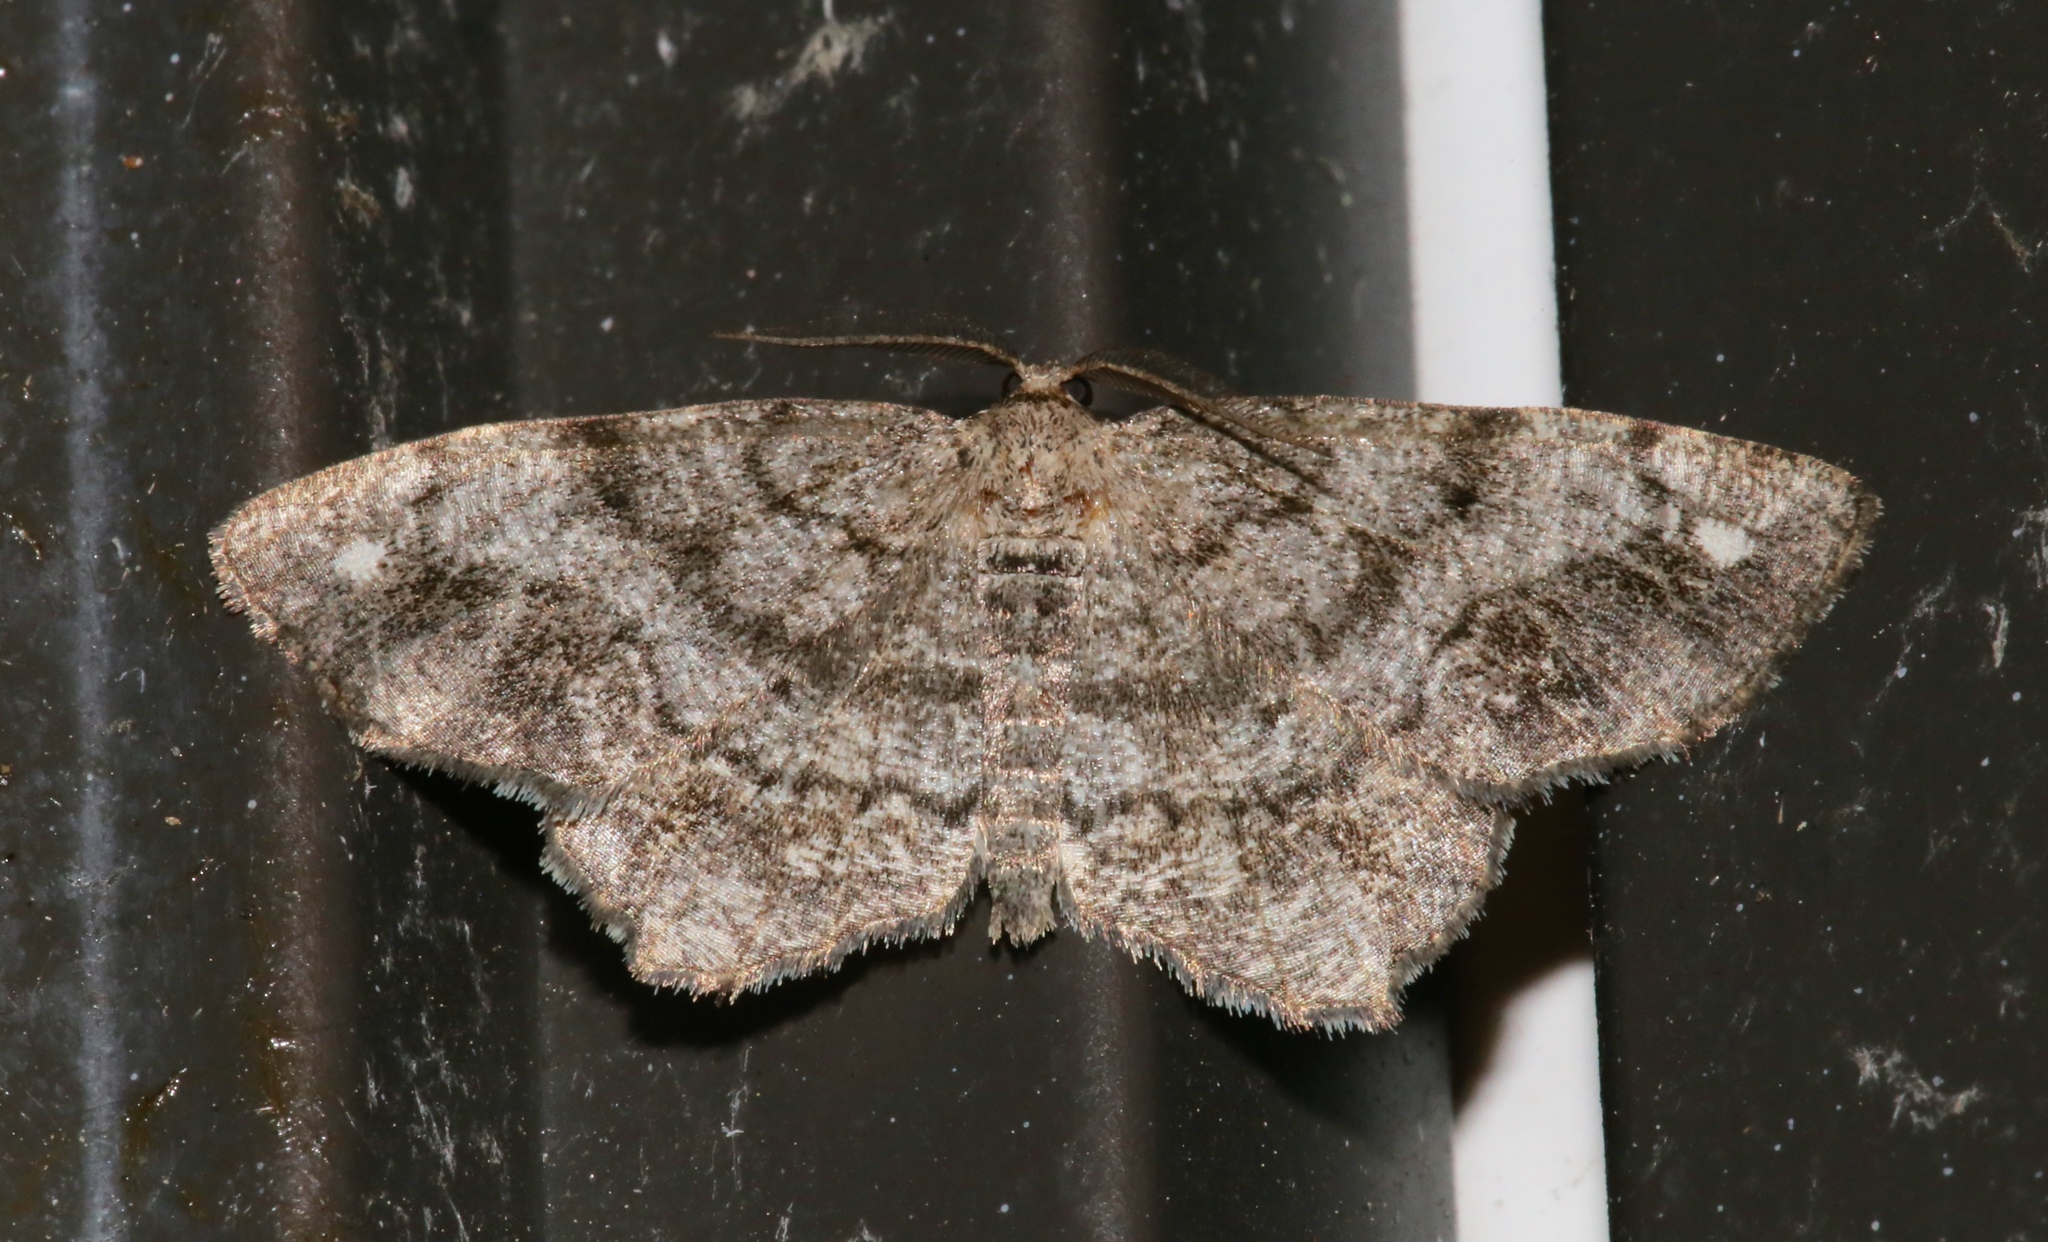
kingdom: Animalia
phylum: Arthropoda
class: Insecta
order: Lepidoptera
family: Geometridae
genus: Hypagyrtis
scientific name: Hypagyrtis unipunctata
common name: One-spotted variant
